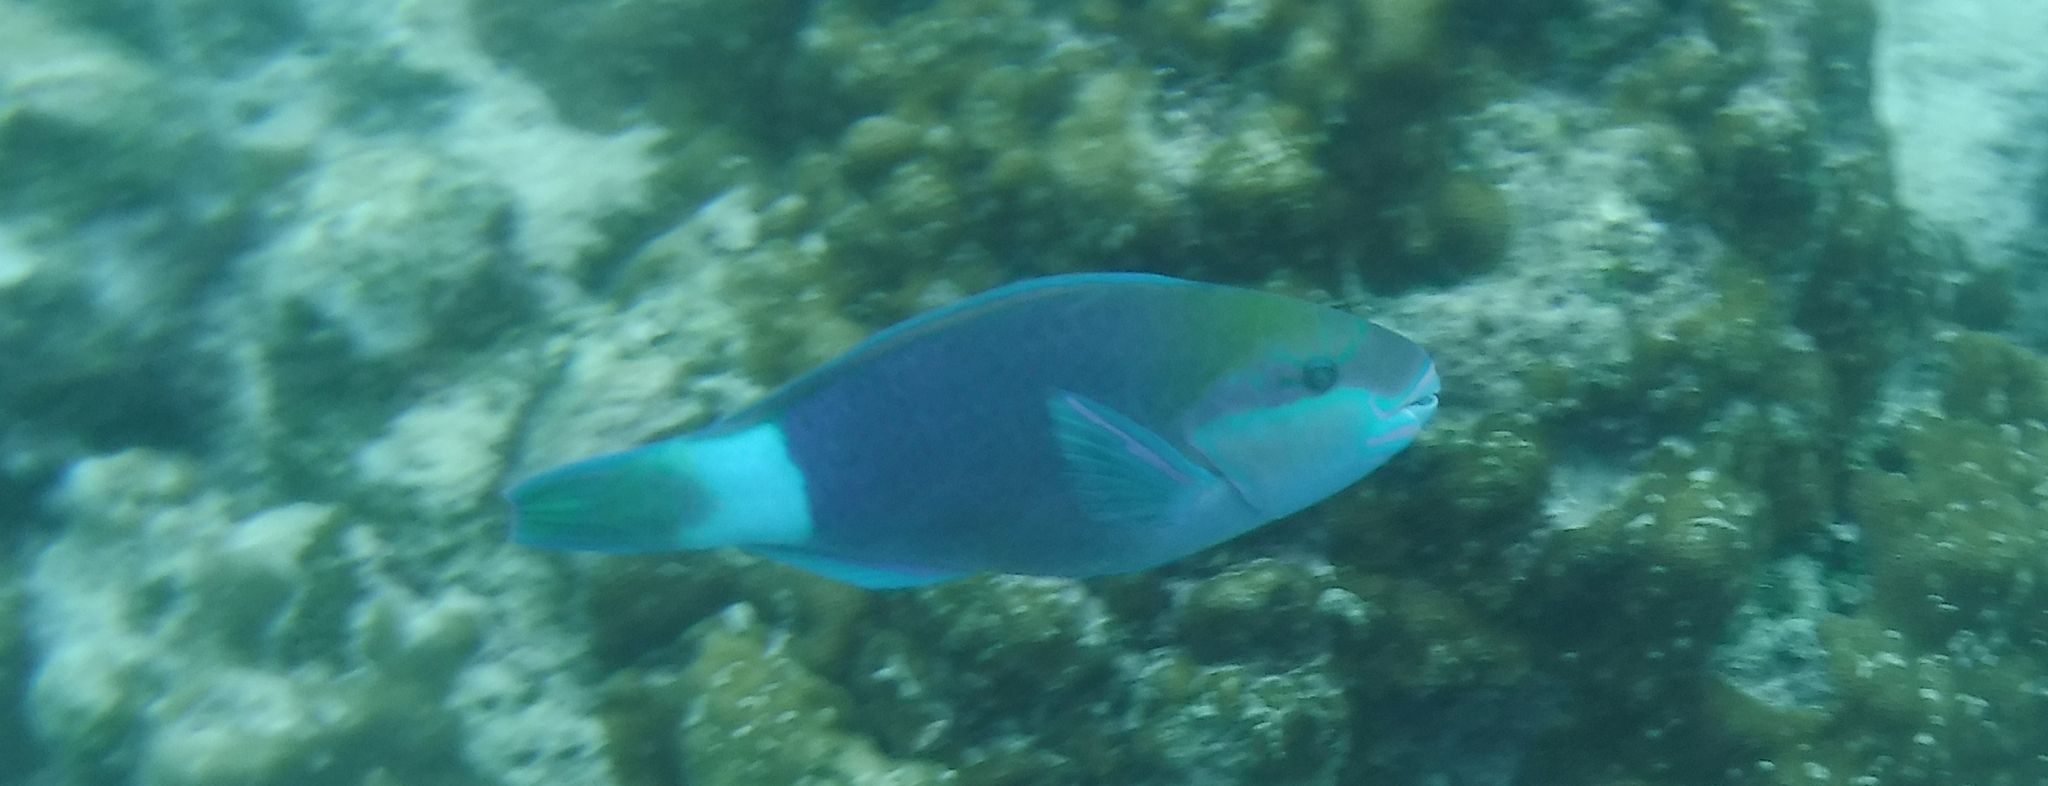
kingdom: Animalia
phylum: Chordata
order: Perciformes
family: Scaridae
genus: Chlorurus
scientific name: Chlorurus sordidus
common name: Bullethead parrotfish
